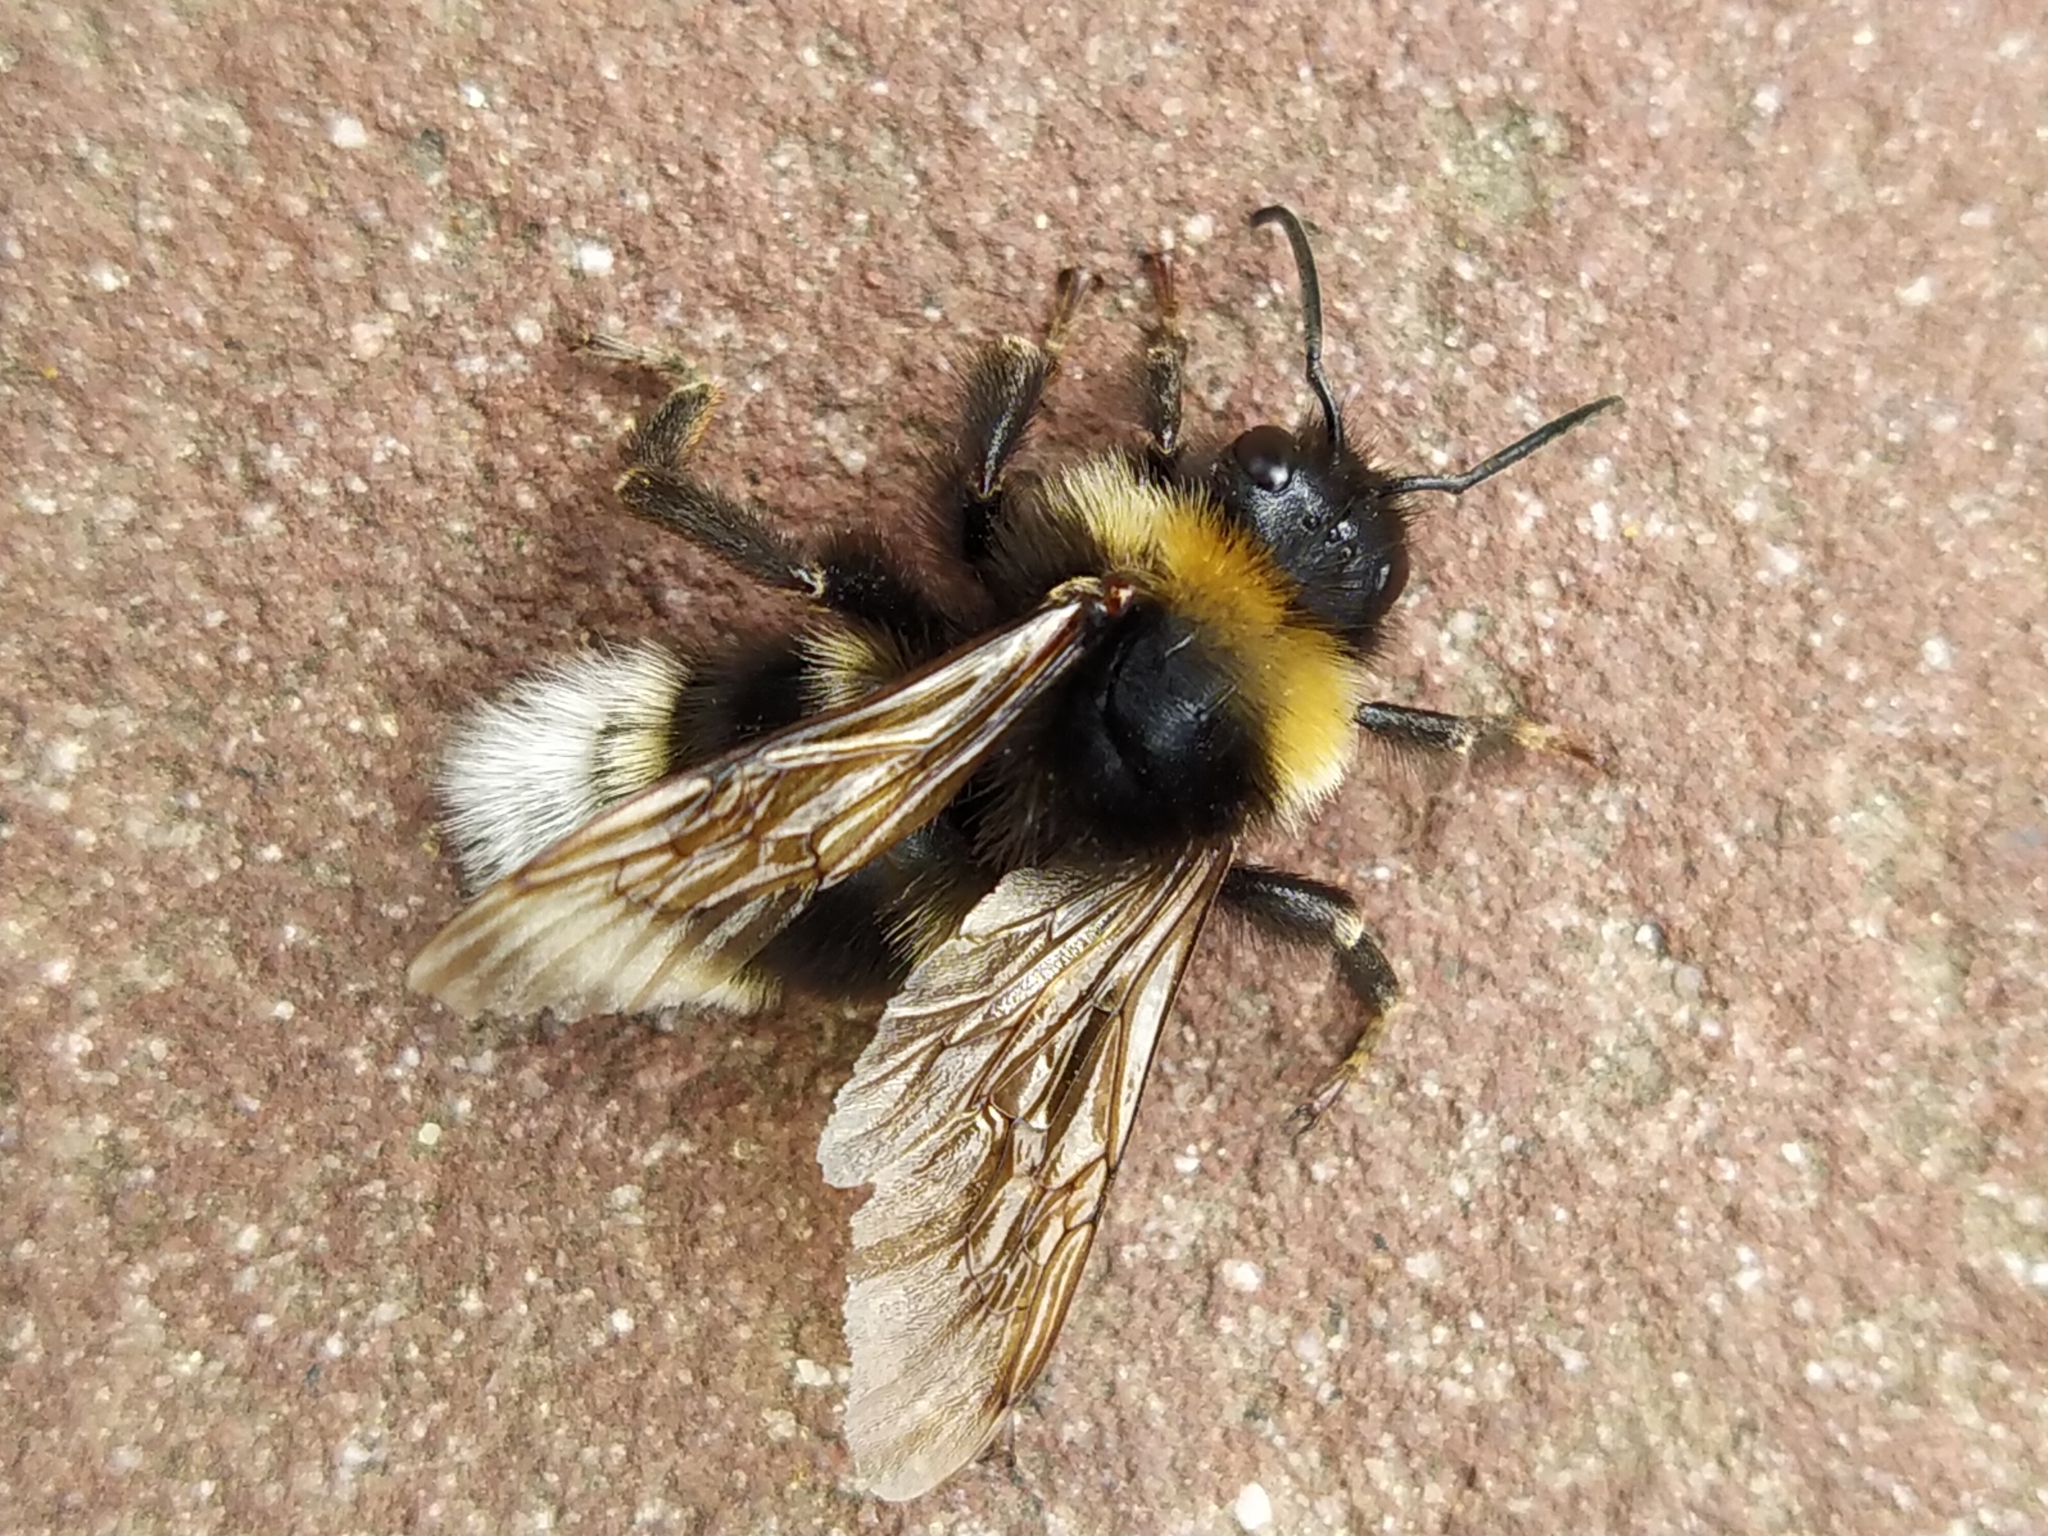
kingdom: Animalia
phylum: Arthropoda
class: Insecta
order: Hymenoptera
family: Apidae
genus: Bombus
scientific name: Bombus vestalis
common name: Vestal cuckoo bee
